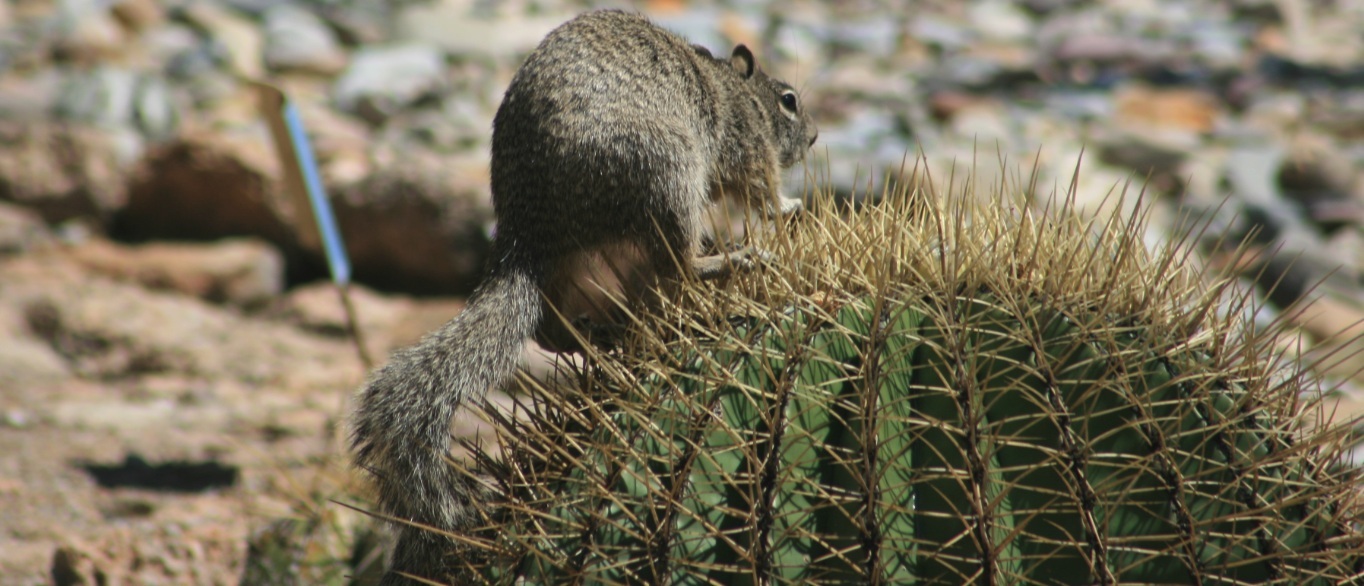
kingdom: Animalia
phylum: Chordata
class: Mammalia
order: Rodentia
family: Sciuridae
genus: Otospermophilus
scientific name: Otospermophilus variegatus
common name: Rock squirrel
